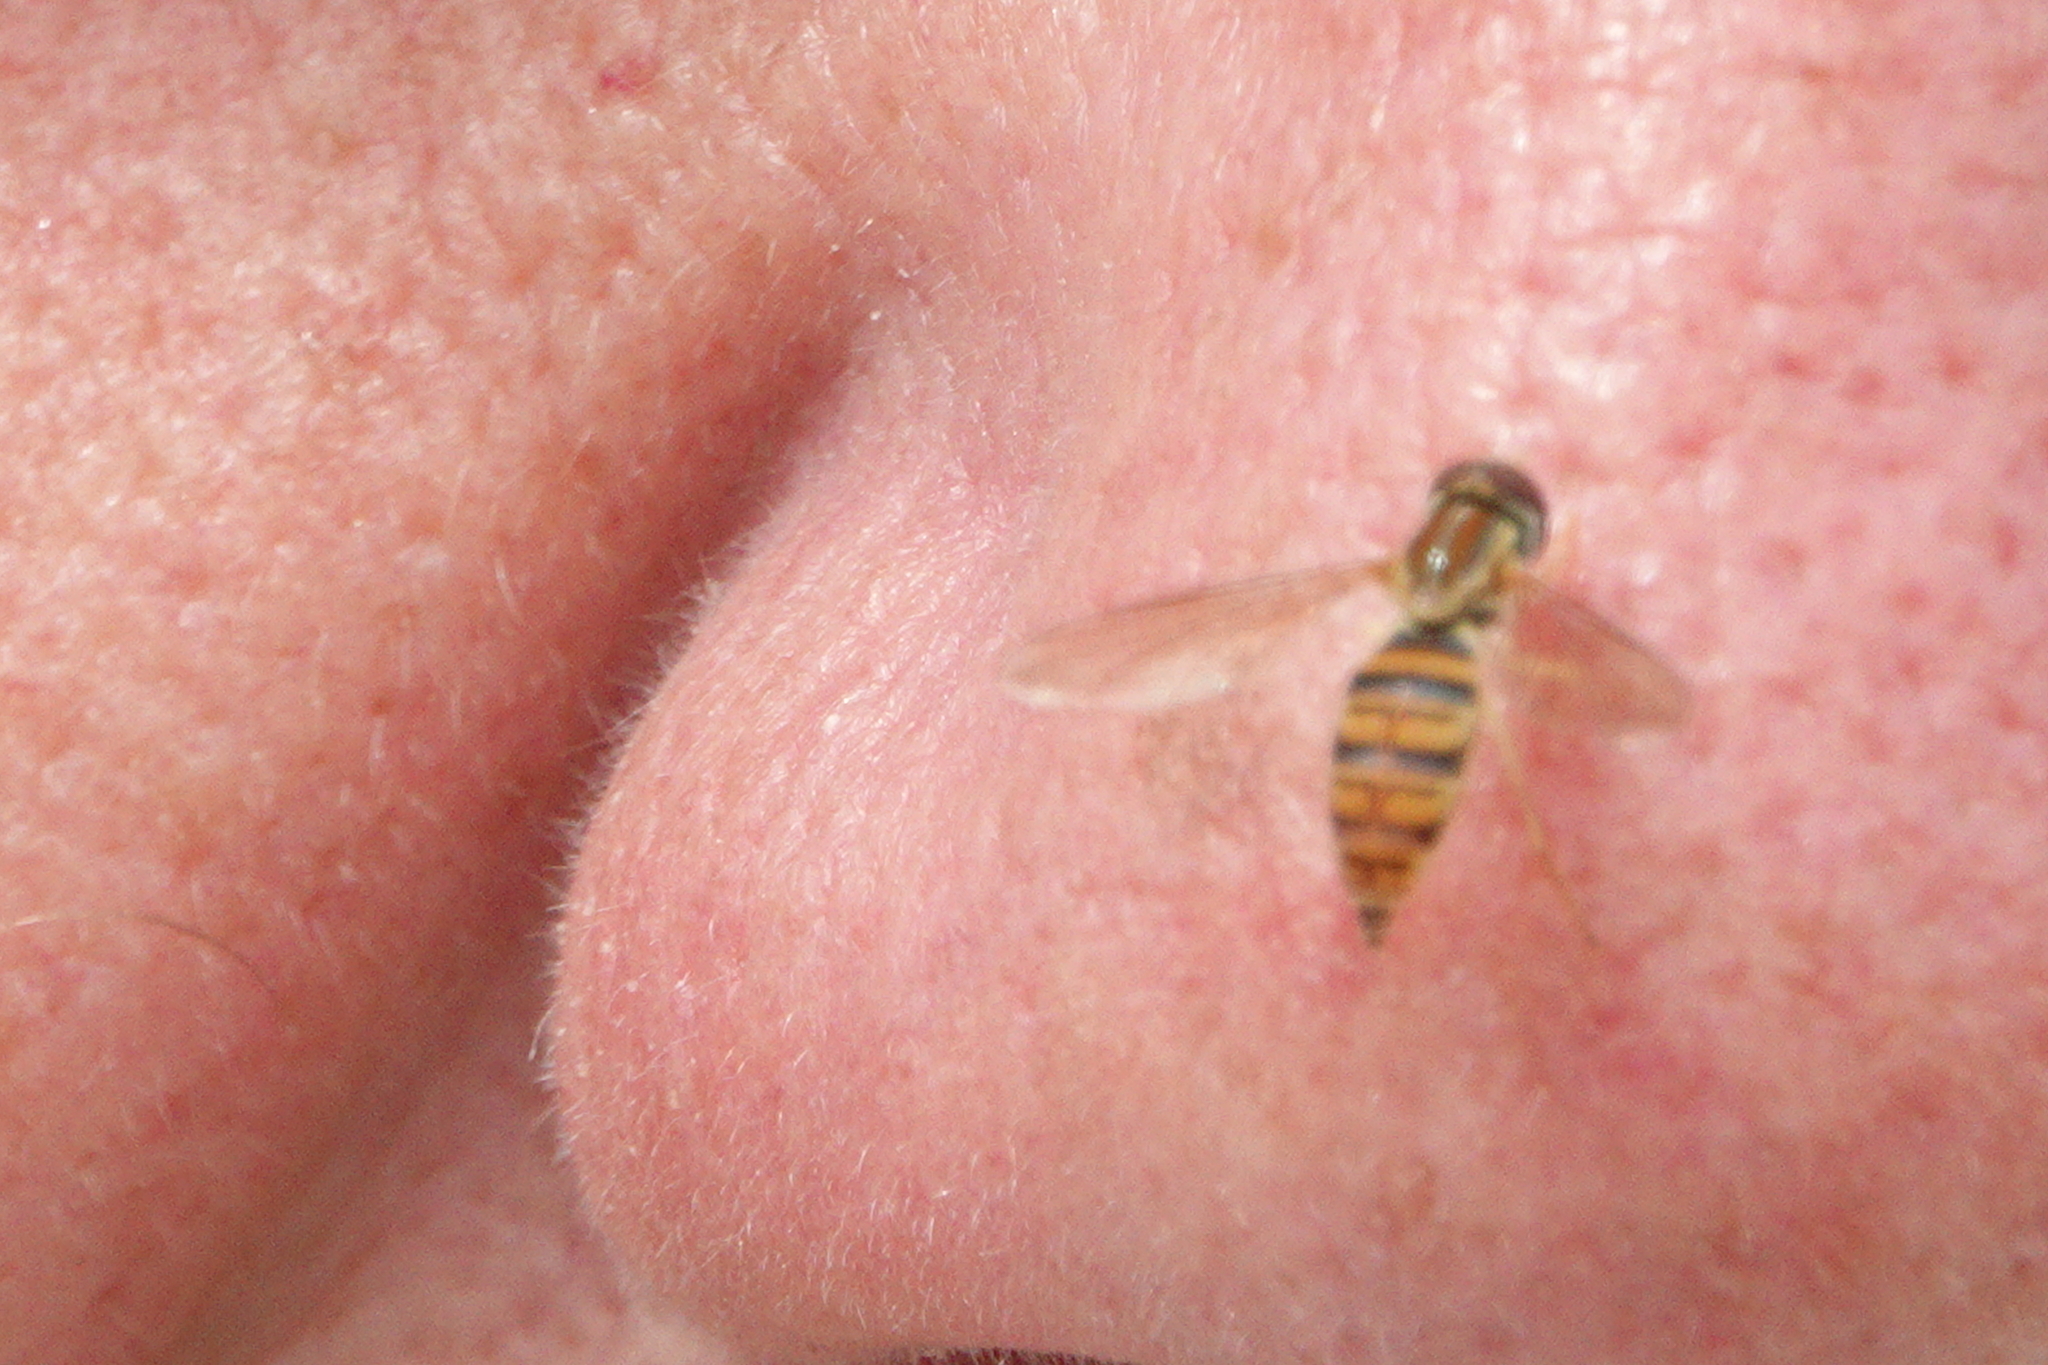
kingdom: Animalia
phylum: Arthropoda
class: Insecta
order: Diptera
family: Syrphidae
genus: Toxomerus
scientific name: Toxomerus politus
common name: Maize calligrapher
